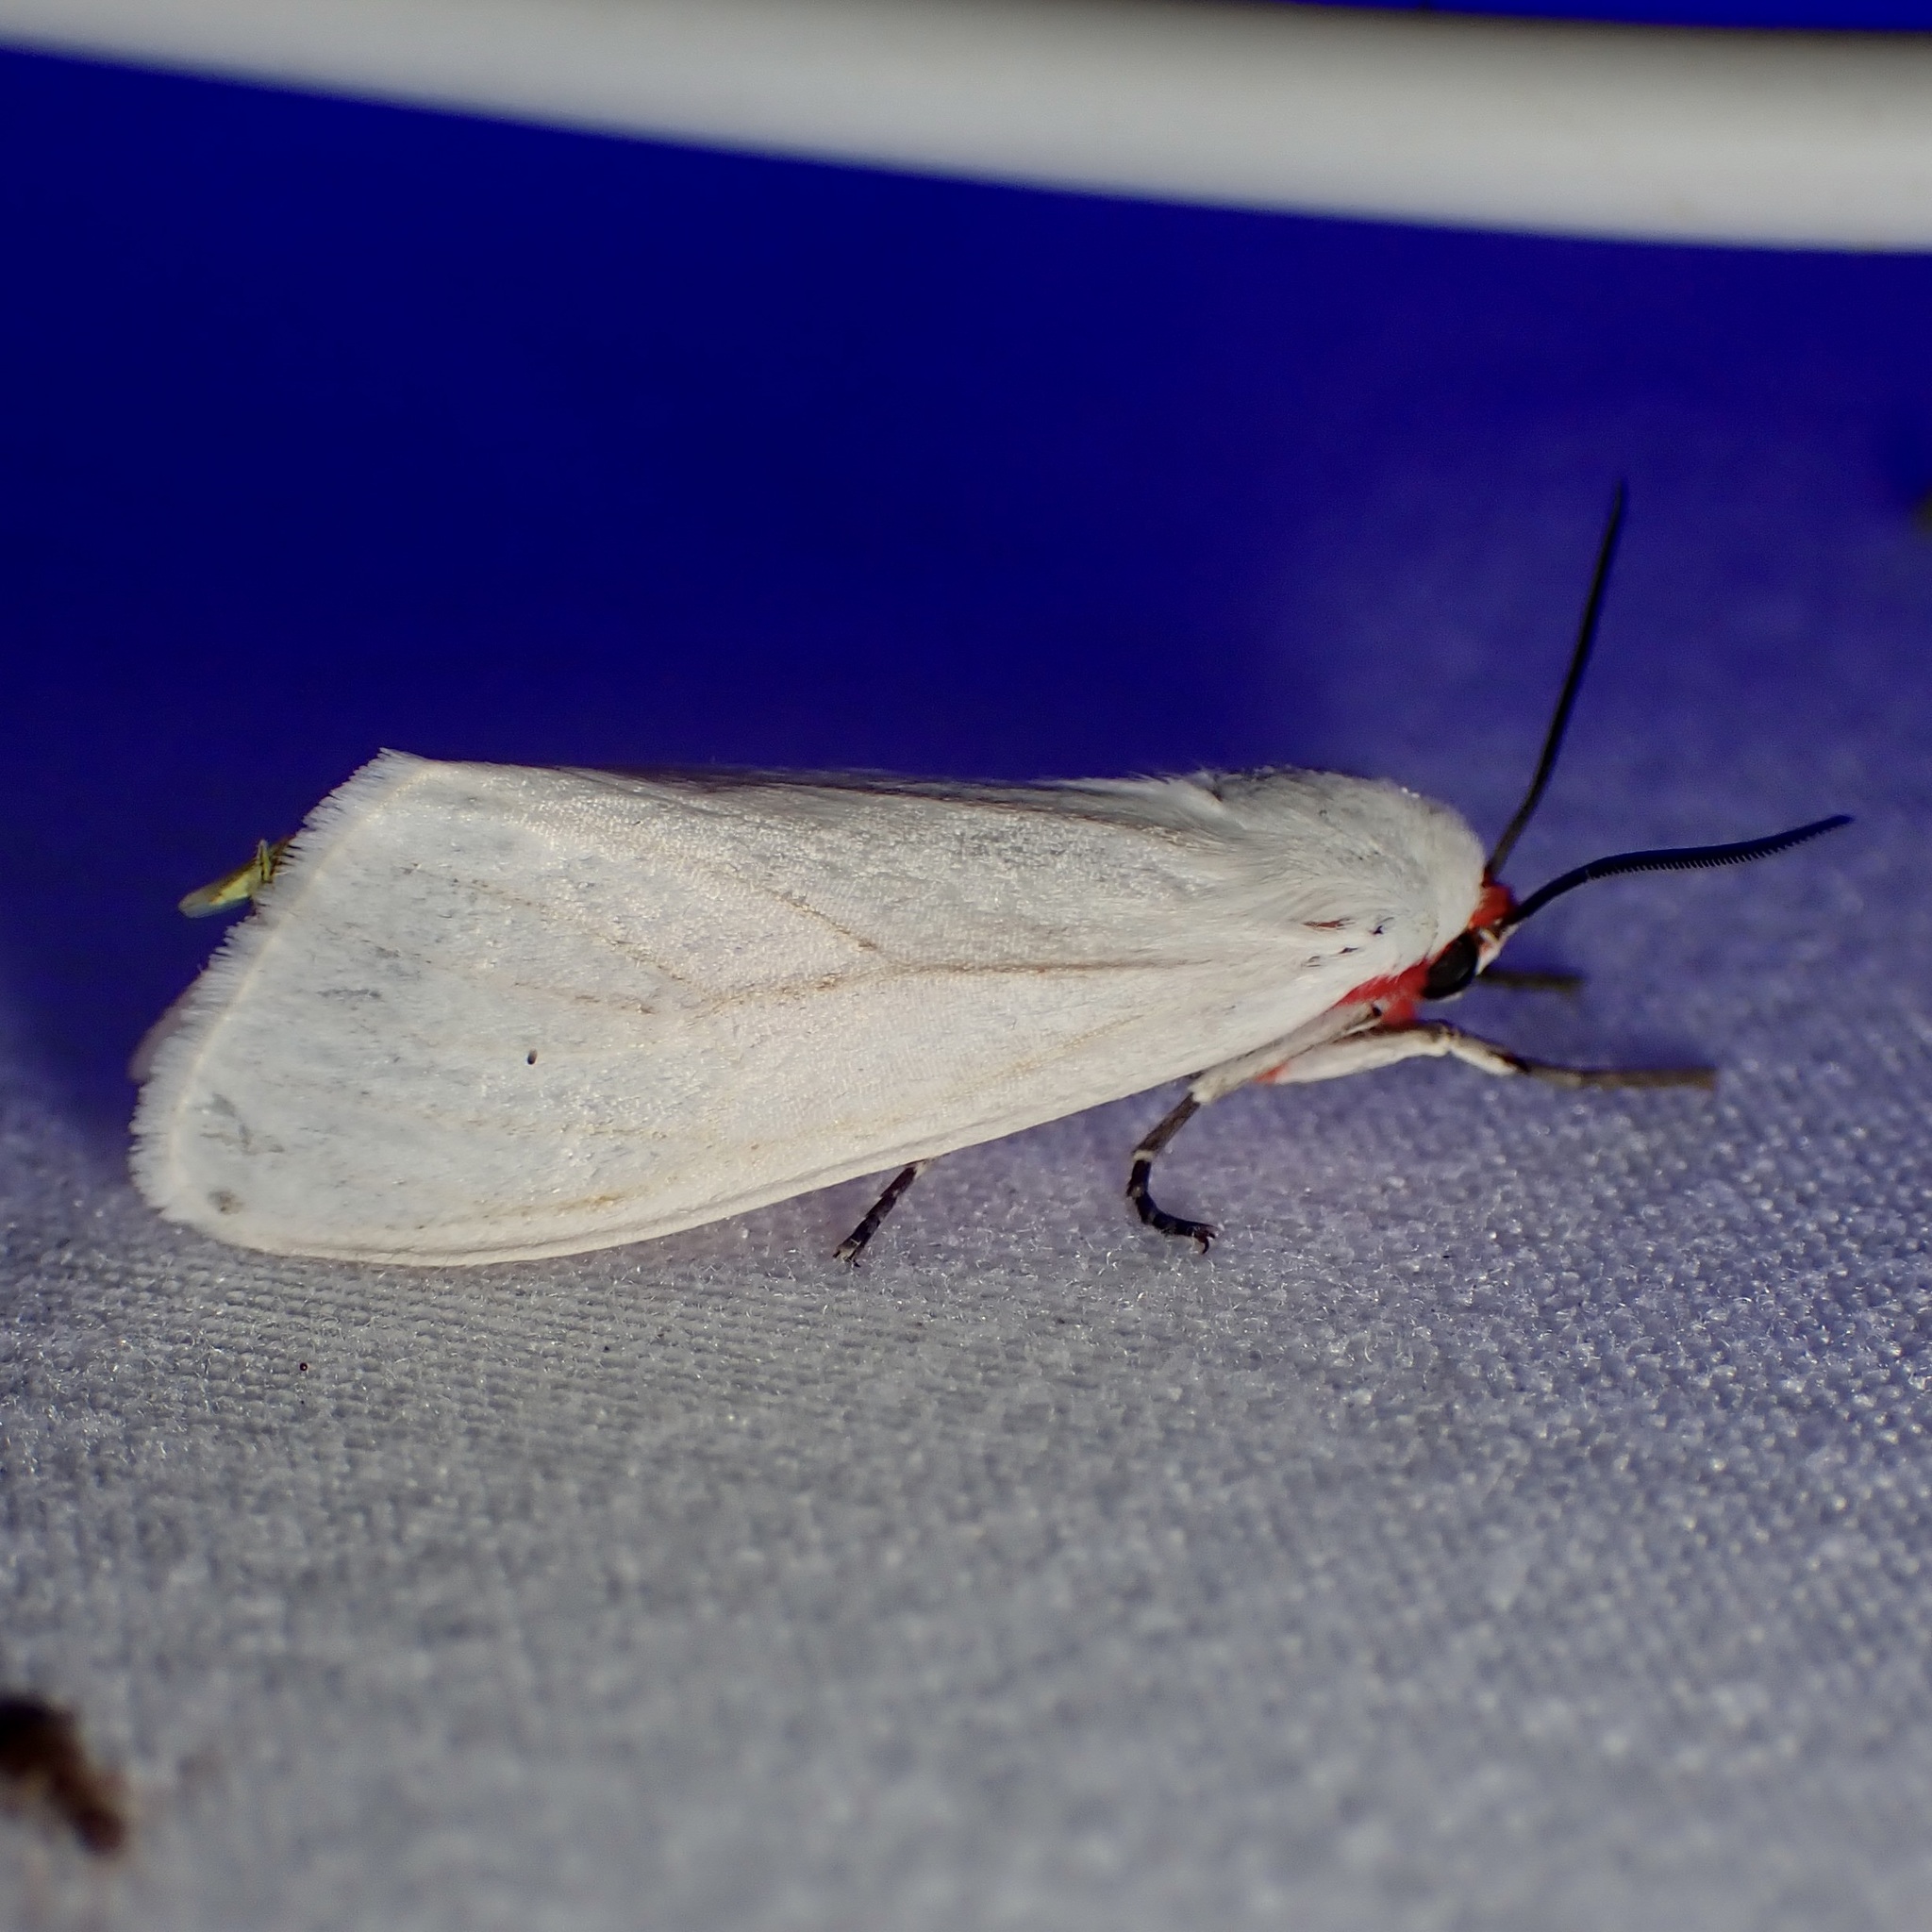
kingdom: Animalia
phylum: Arthropoda
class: Insecta
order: Lepidoptera
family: Erebidae
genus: Pygarctia
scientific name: Pygarctia roseicapitis
